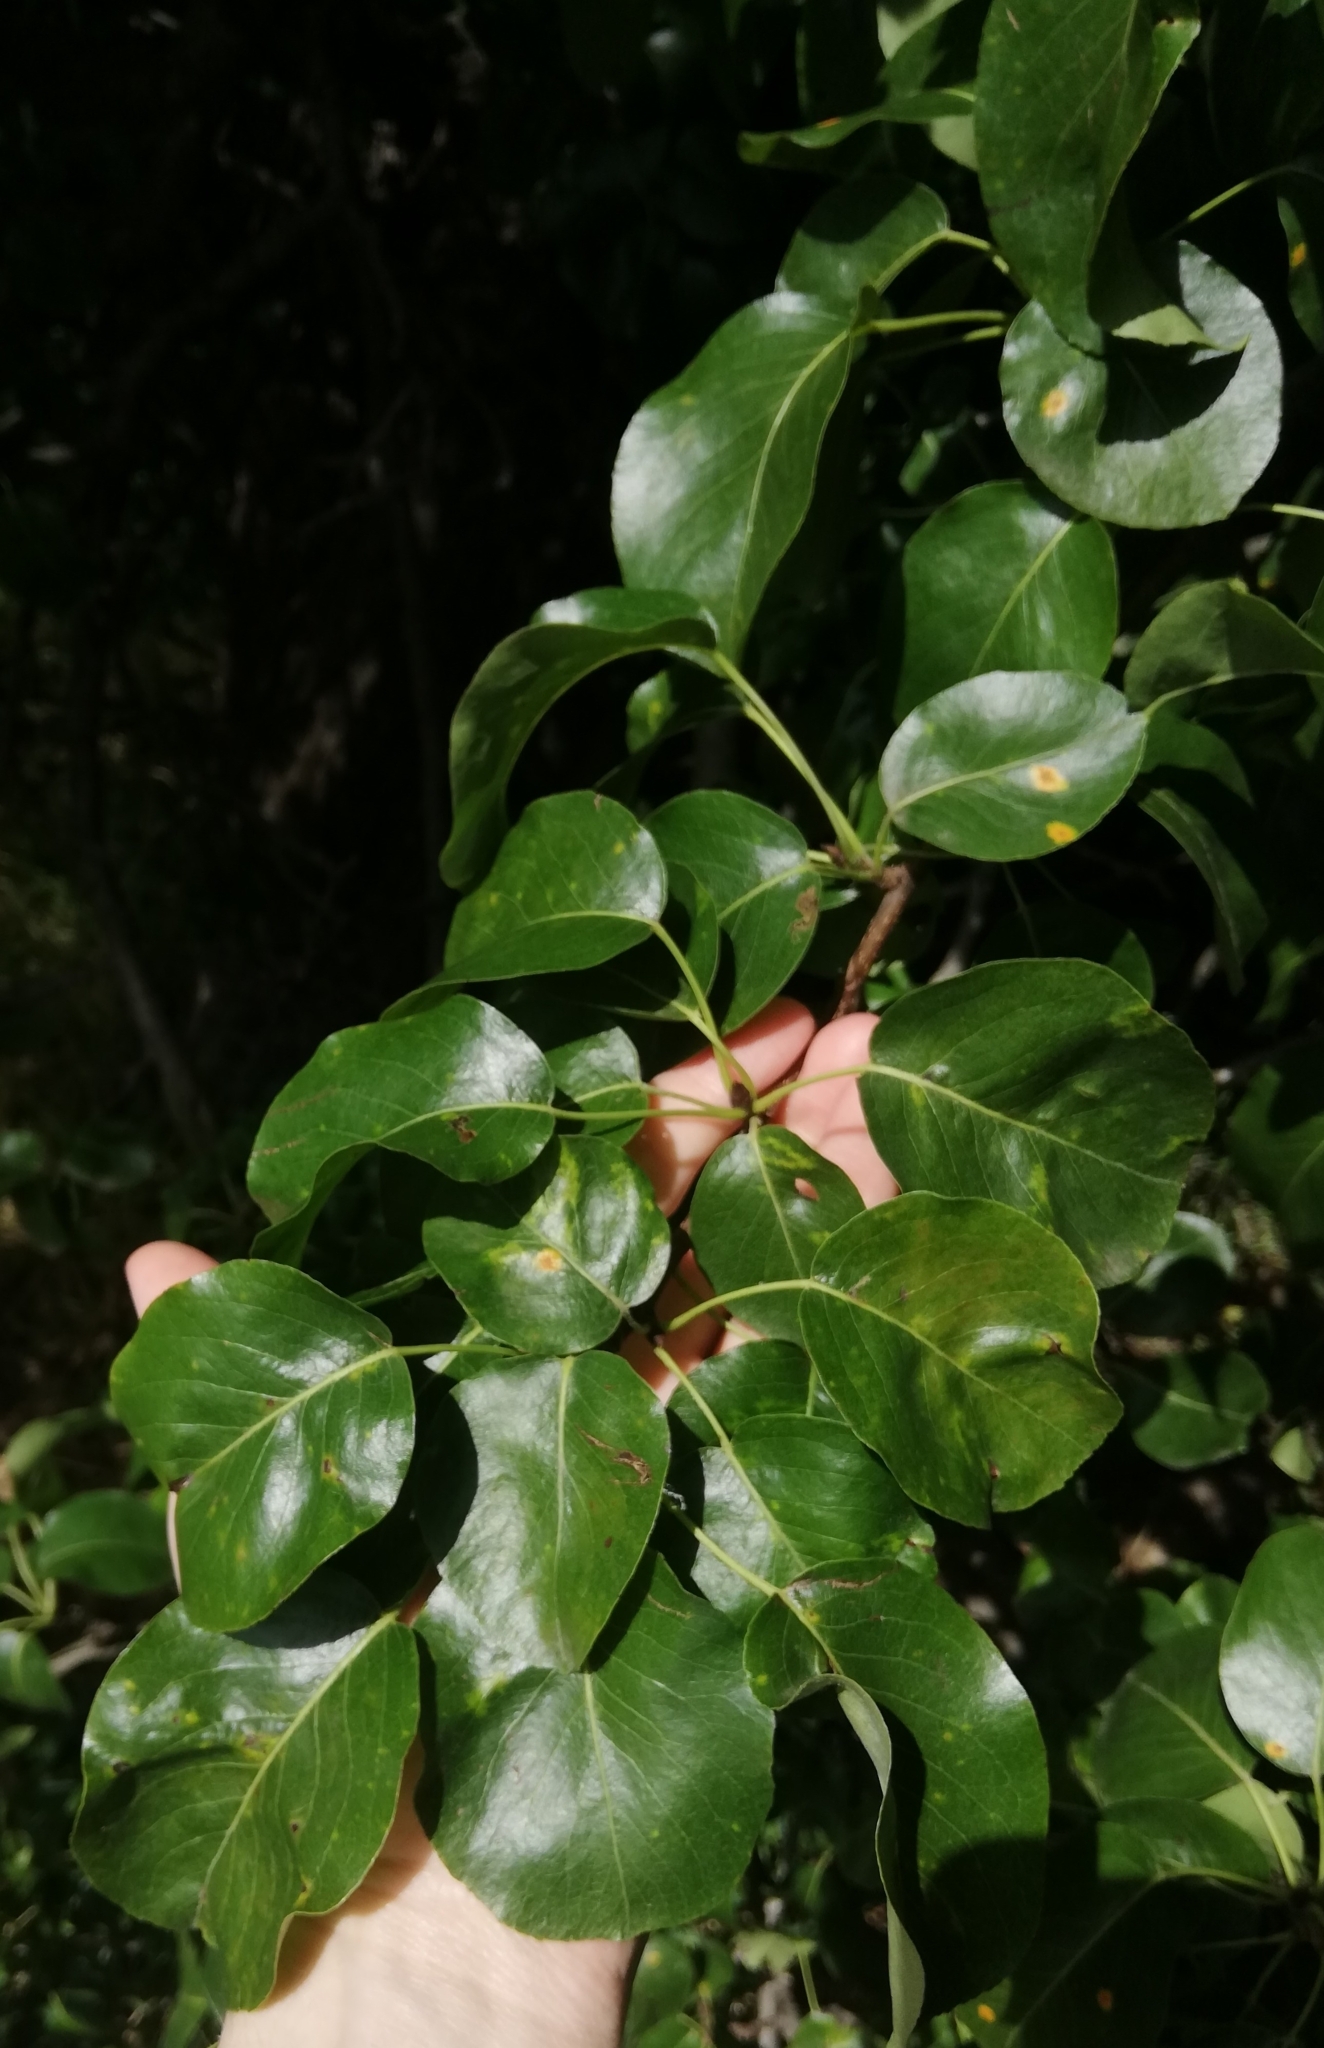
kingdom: Plantae
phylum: Tracheophyta
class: Magnoliopsida
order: Rosales
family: Rosaceae
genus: Pyrus
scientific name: Pyrus communis
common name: Pear
